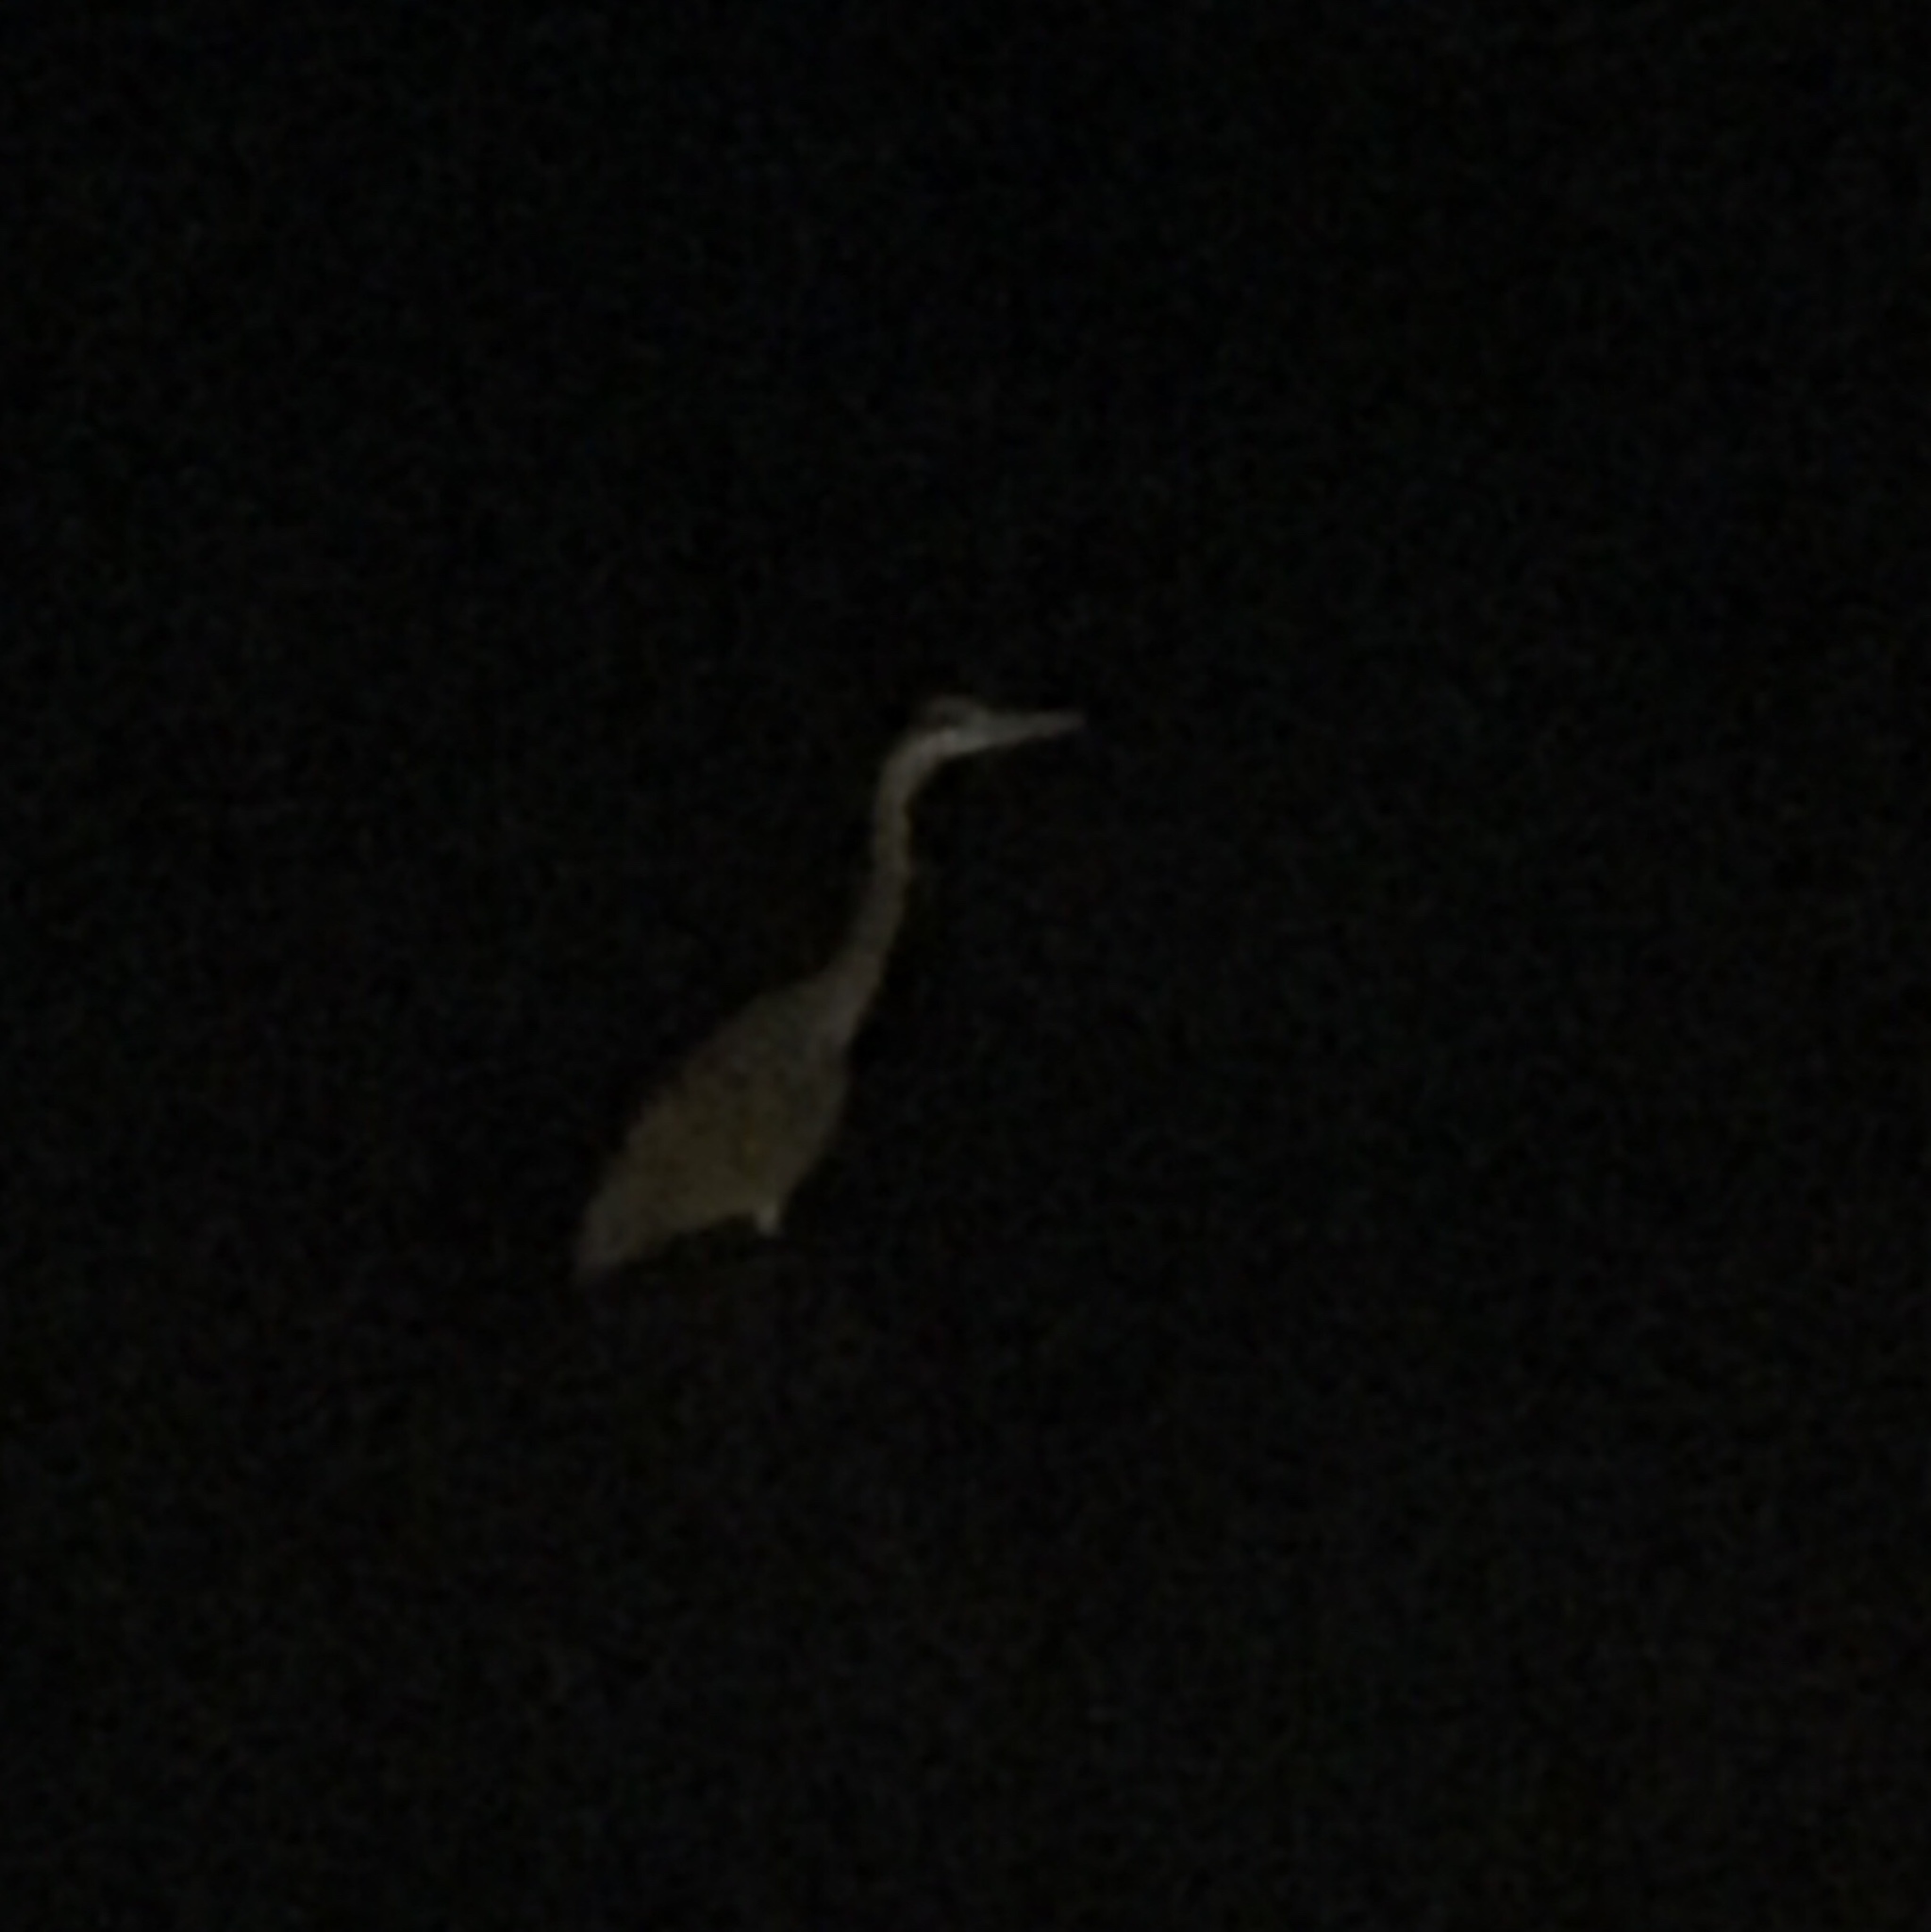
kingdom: Animalia
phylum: Chordata
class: Aves
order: Pelecaniformes
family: Ardeidae
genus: Ardea
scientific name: Ardea cinerea
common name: Grey heron
